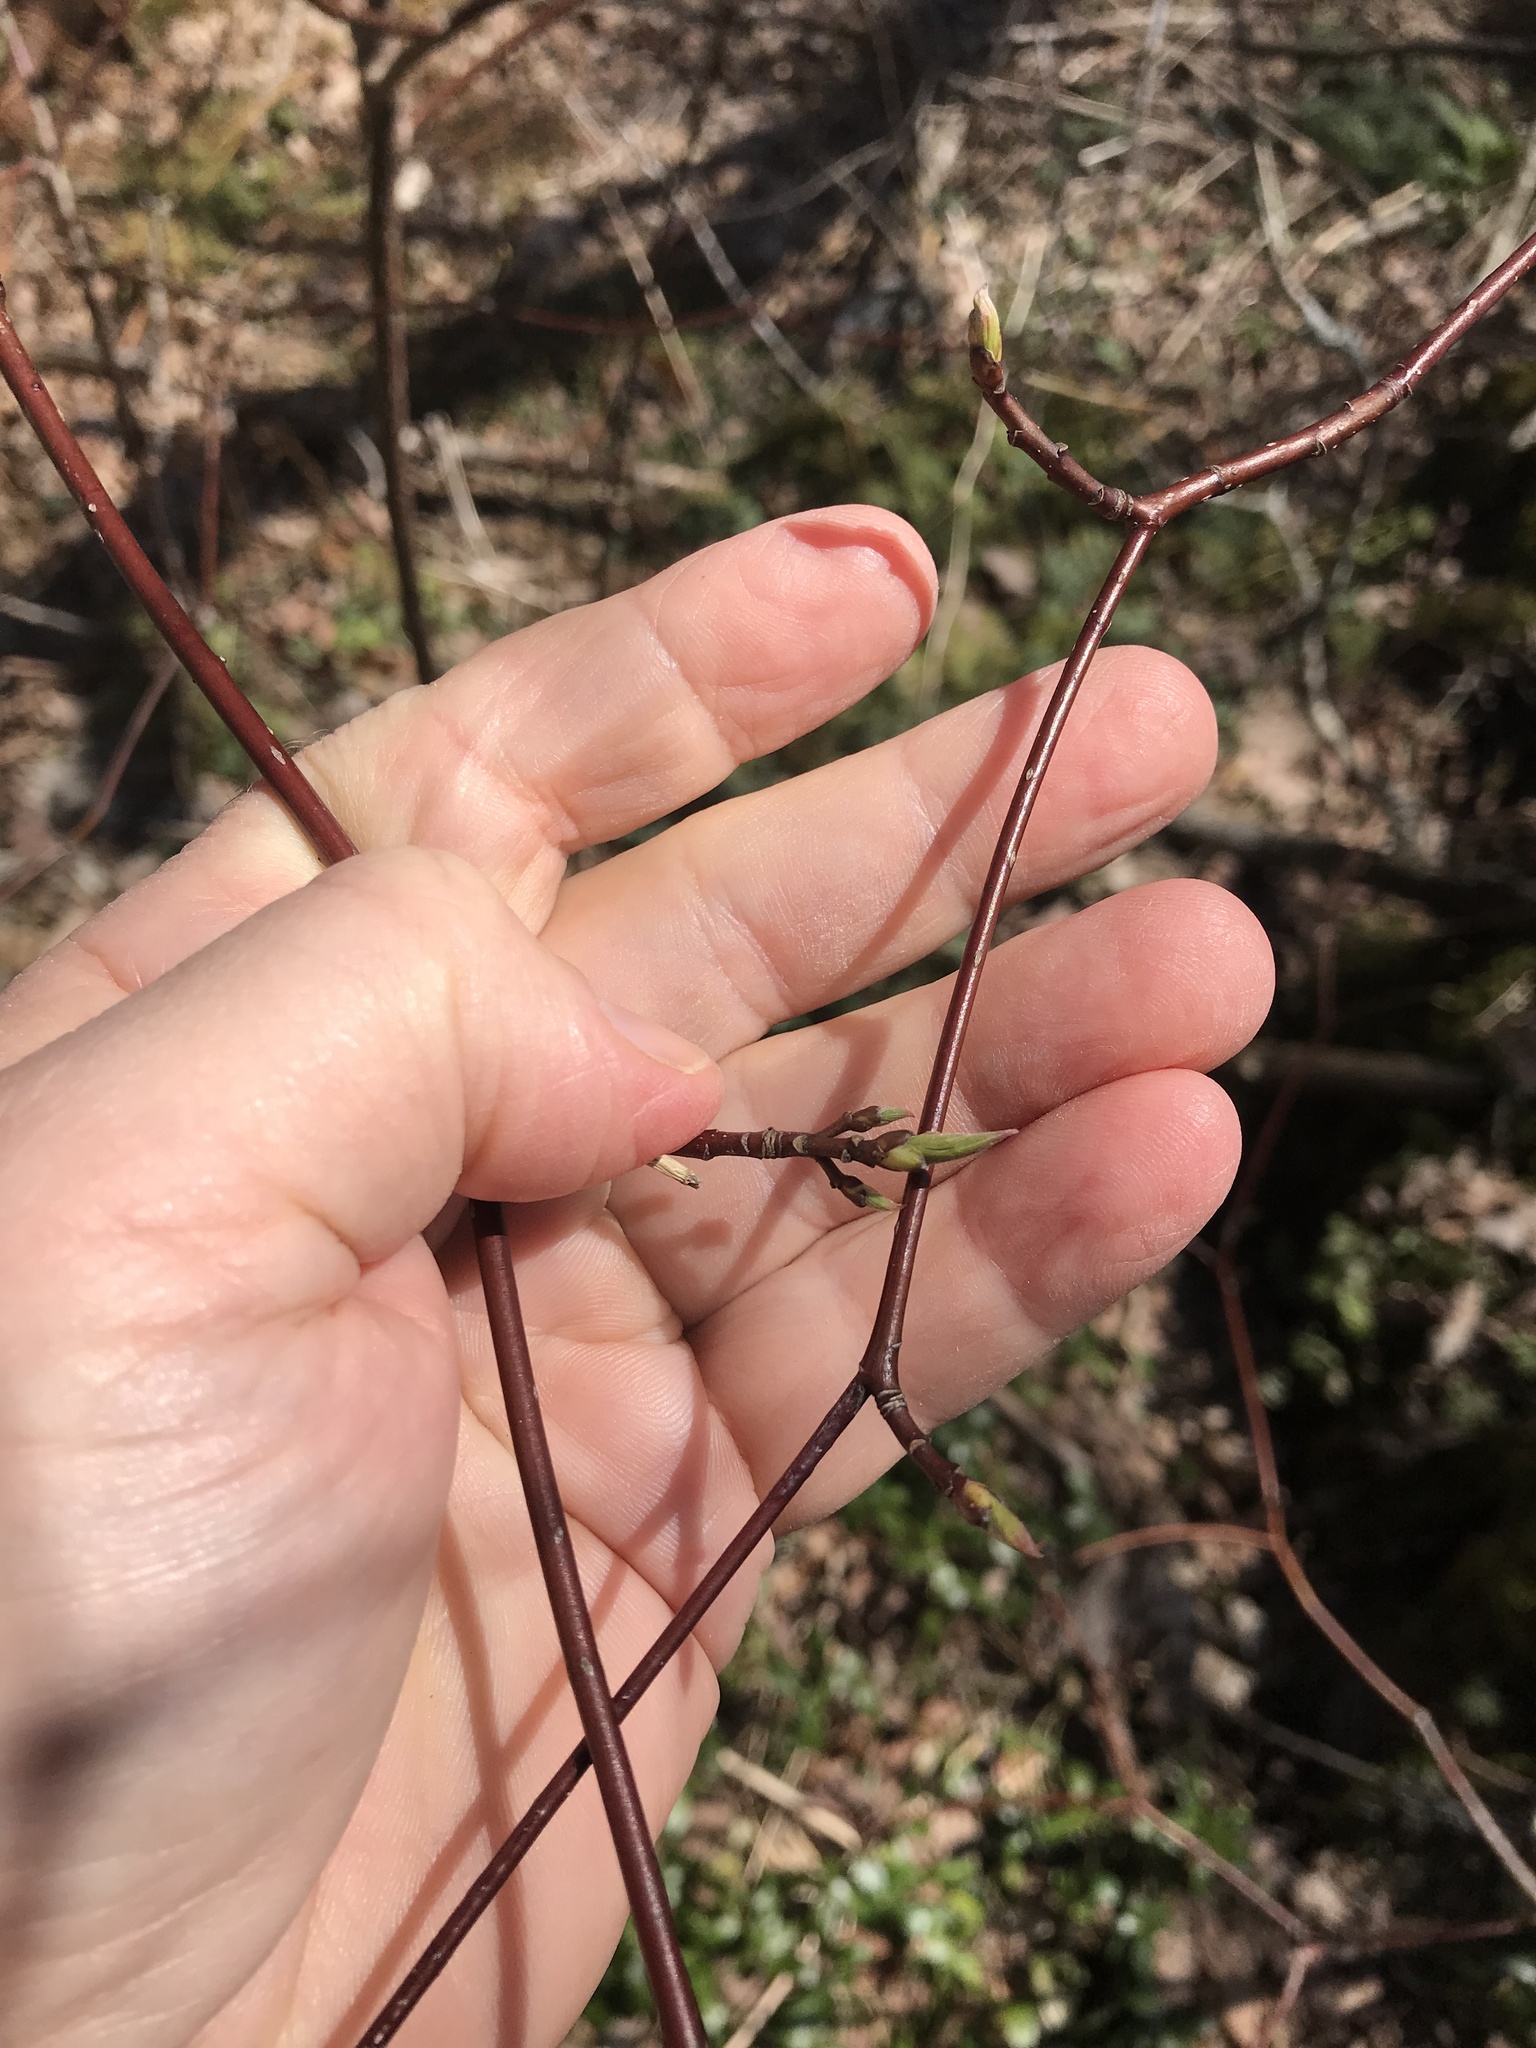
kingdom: Plantae
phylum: Tracheophyta
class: Magnoliopsida
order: Cornales
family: Cornaceae
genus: Cornus
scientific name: Cornus alternifolia
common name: Pagoda dogwood
